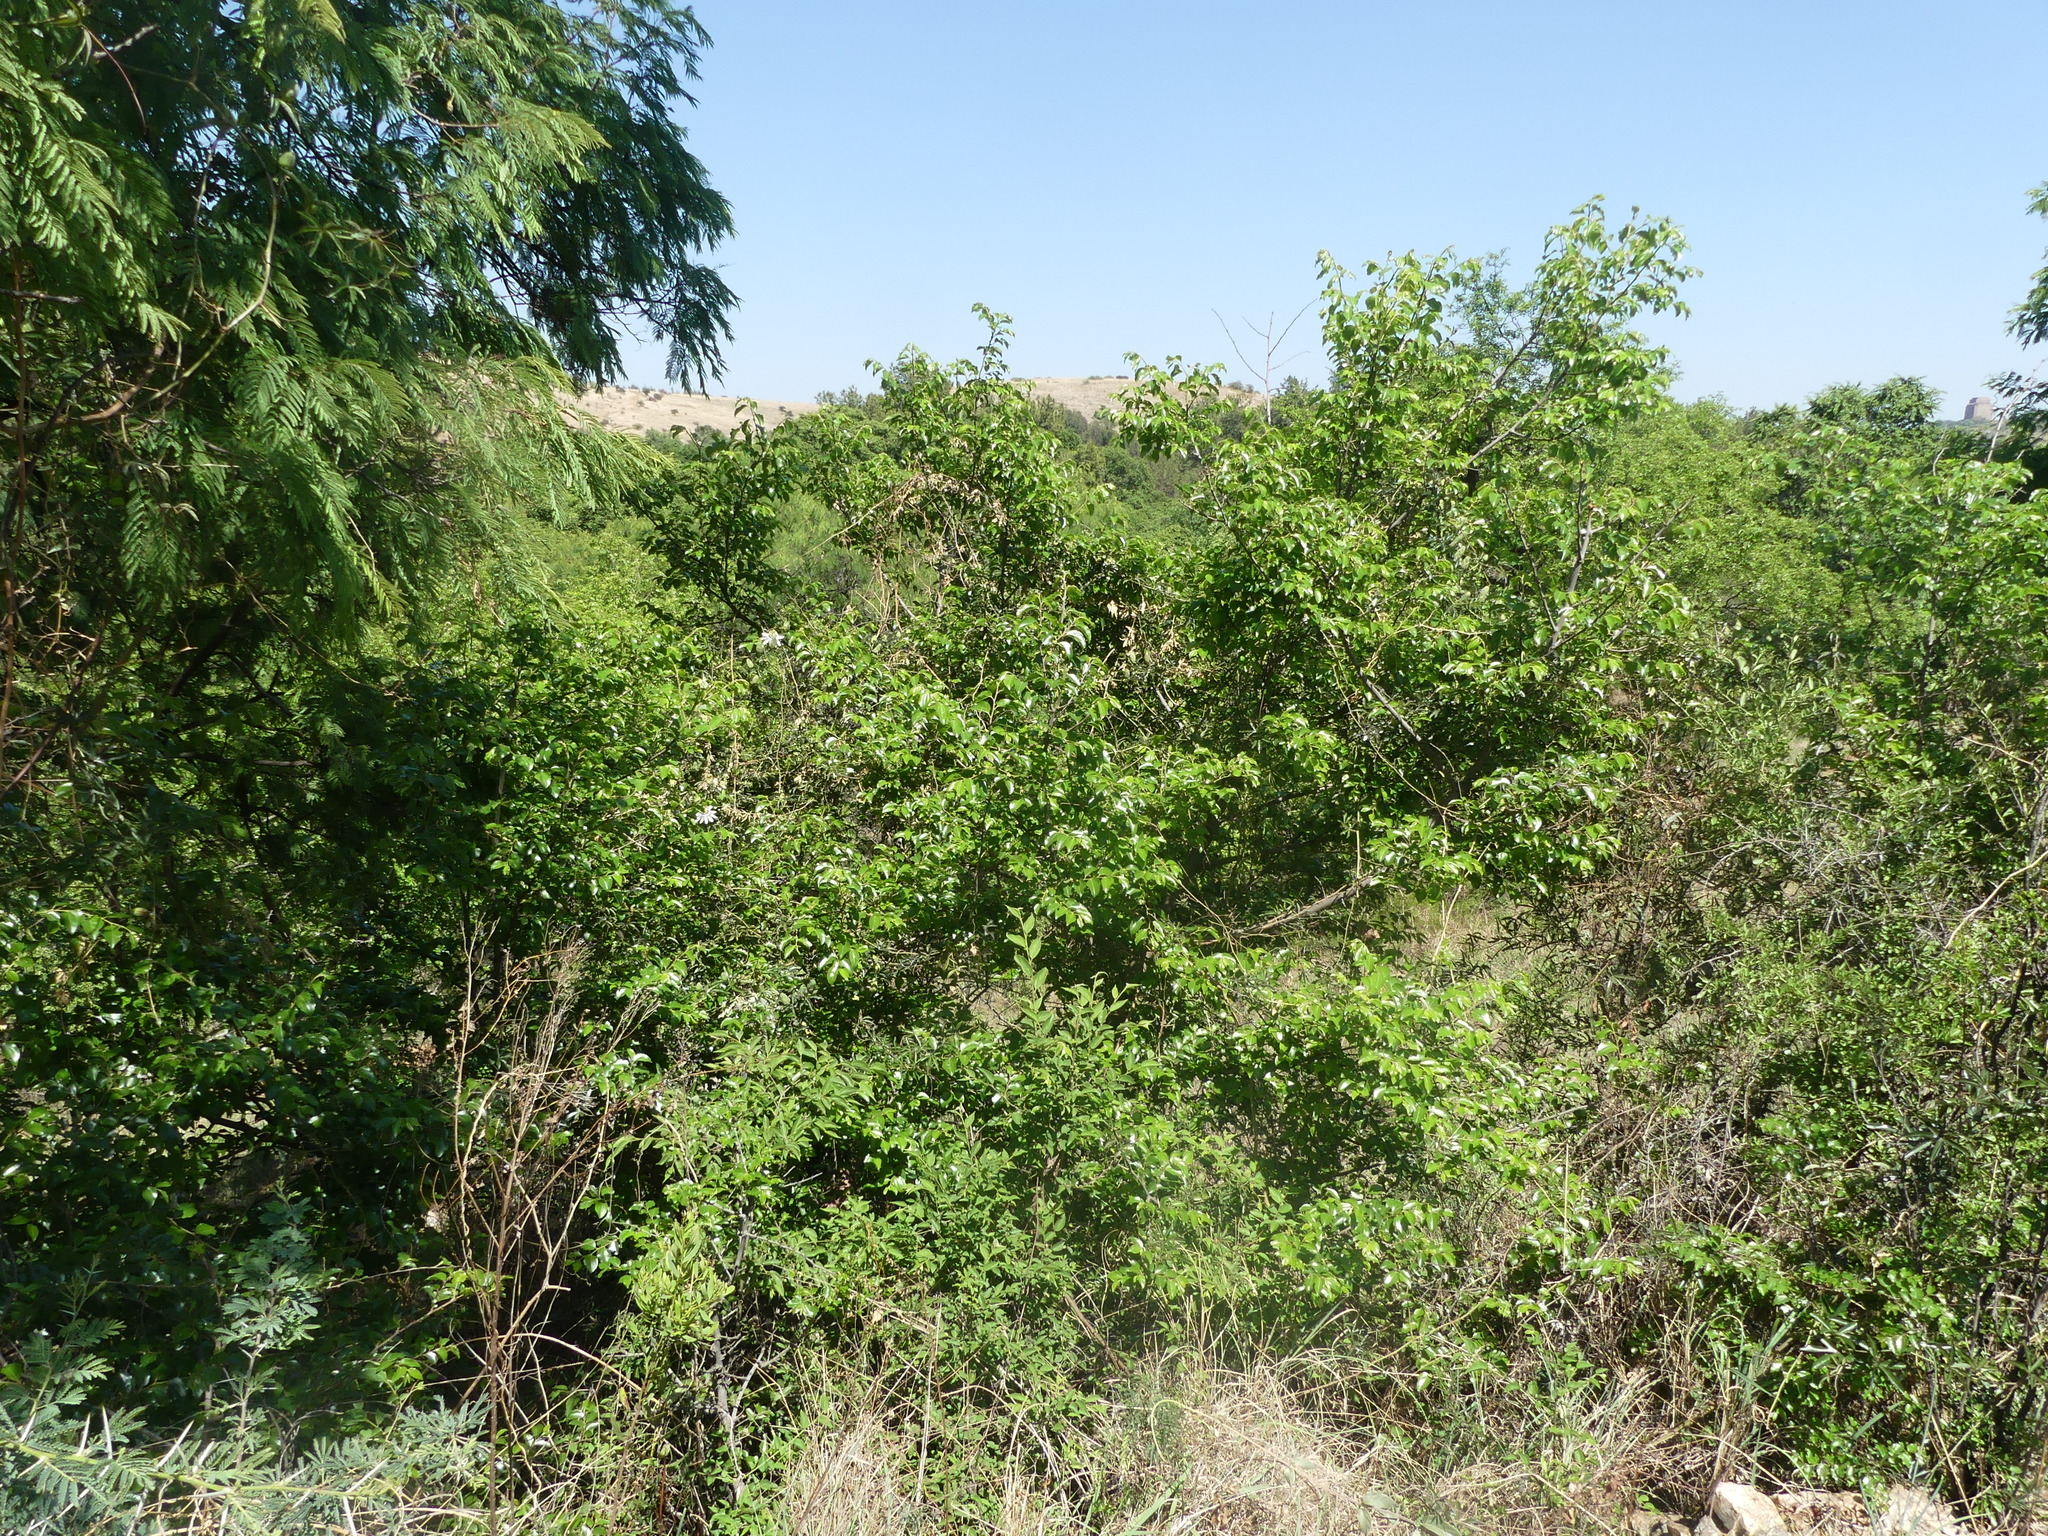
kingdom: Plantae
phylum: Tracheophyta
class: Magnoliopsida
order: Rosales
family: Rhamnaceae
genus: Ziziphus
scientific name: Ziziphus mucronata
